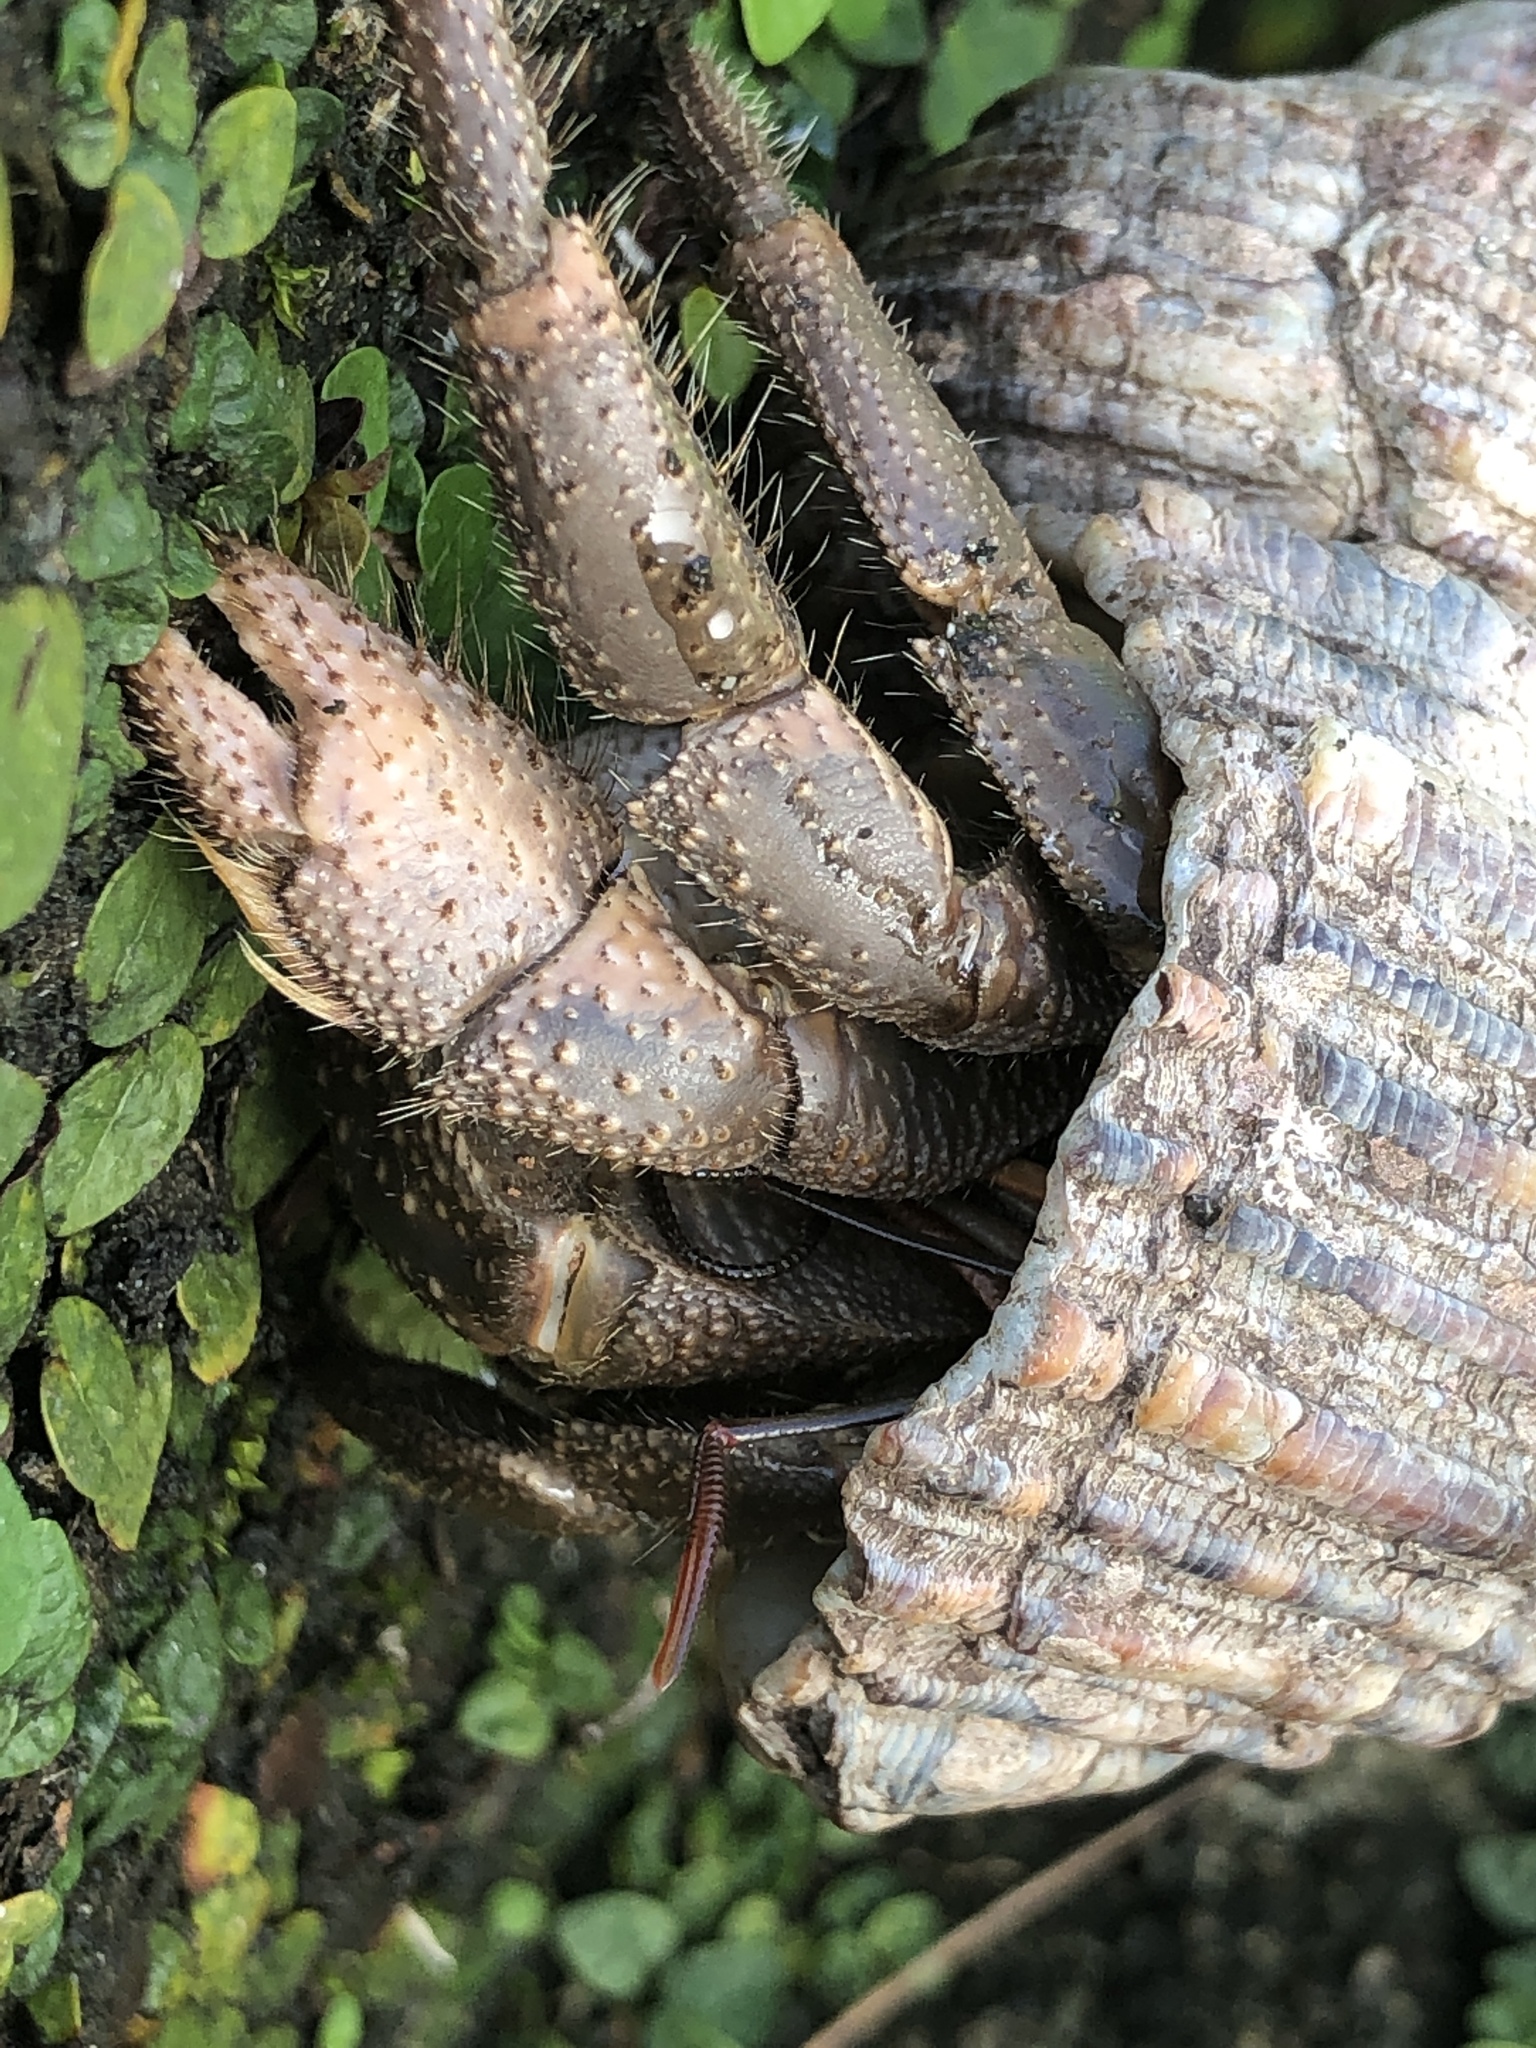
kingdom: Animalia
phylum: Arthropoda
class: Malacostraca
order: Decapoda
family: Coenobitidae
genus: Coenobita
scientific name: Coenobita cavipes
